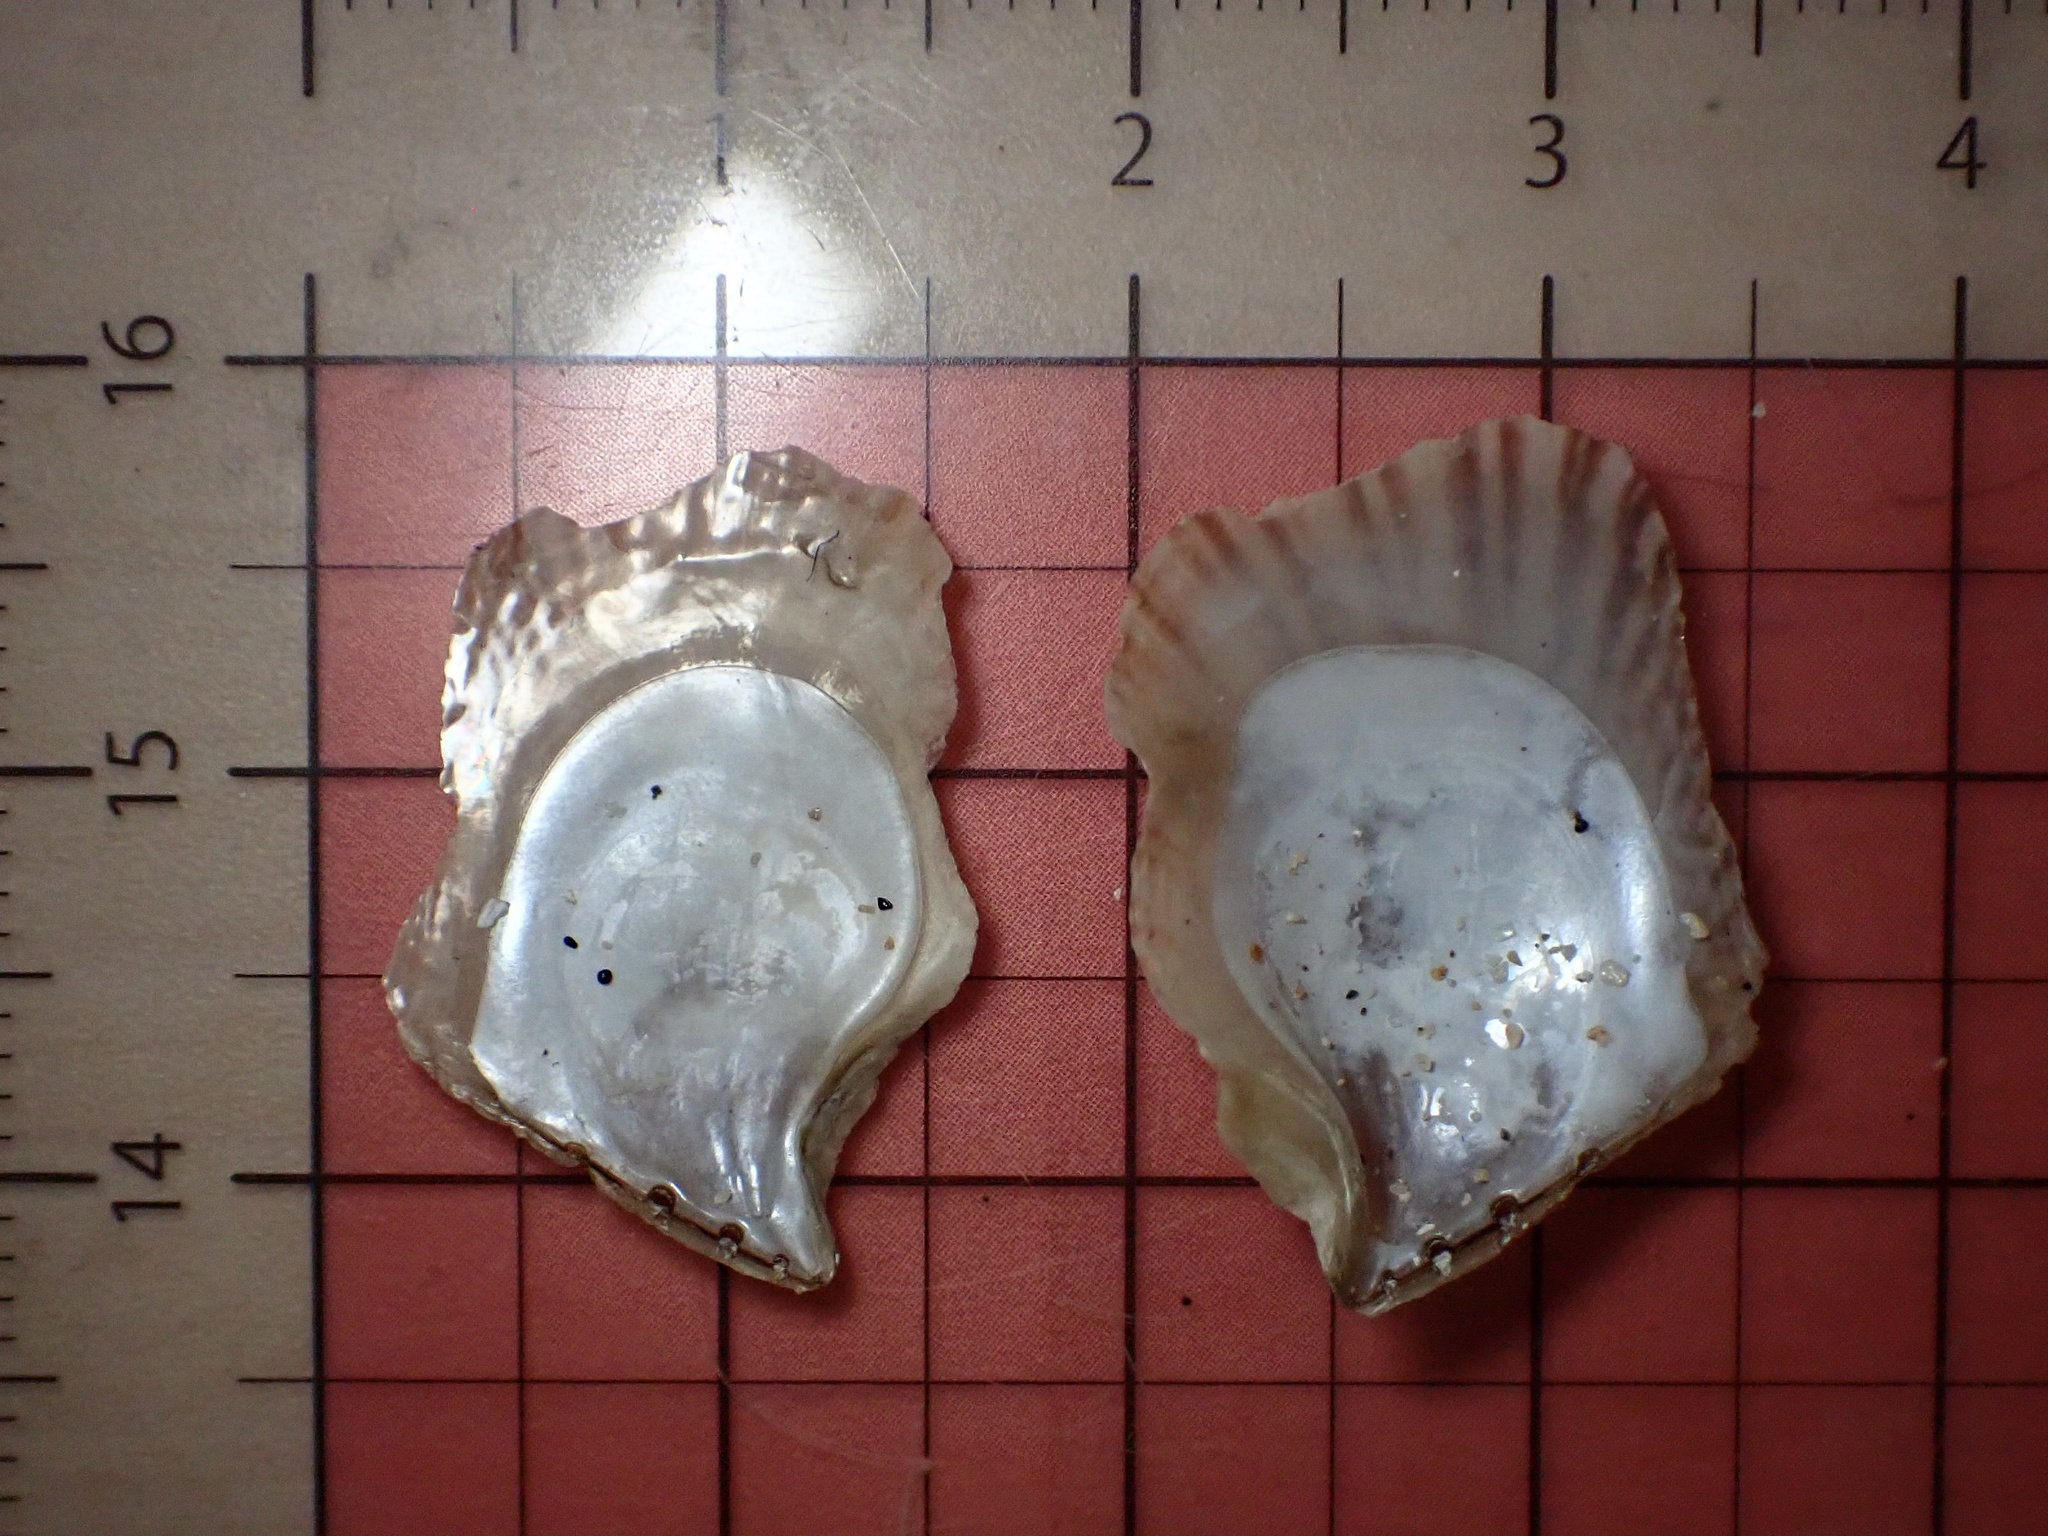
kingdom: Animalia
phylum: Mollusca
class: Bivalvia
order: Ostreida
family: Isognomonidae
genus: Isognomon
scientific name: Isognomon perna
